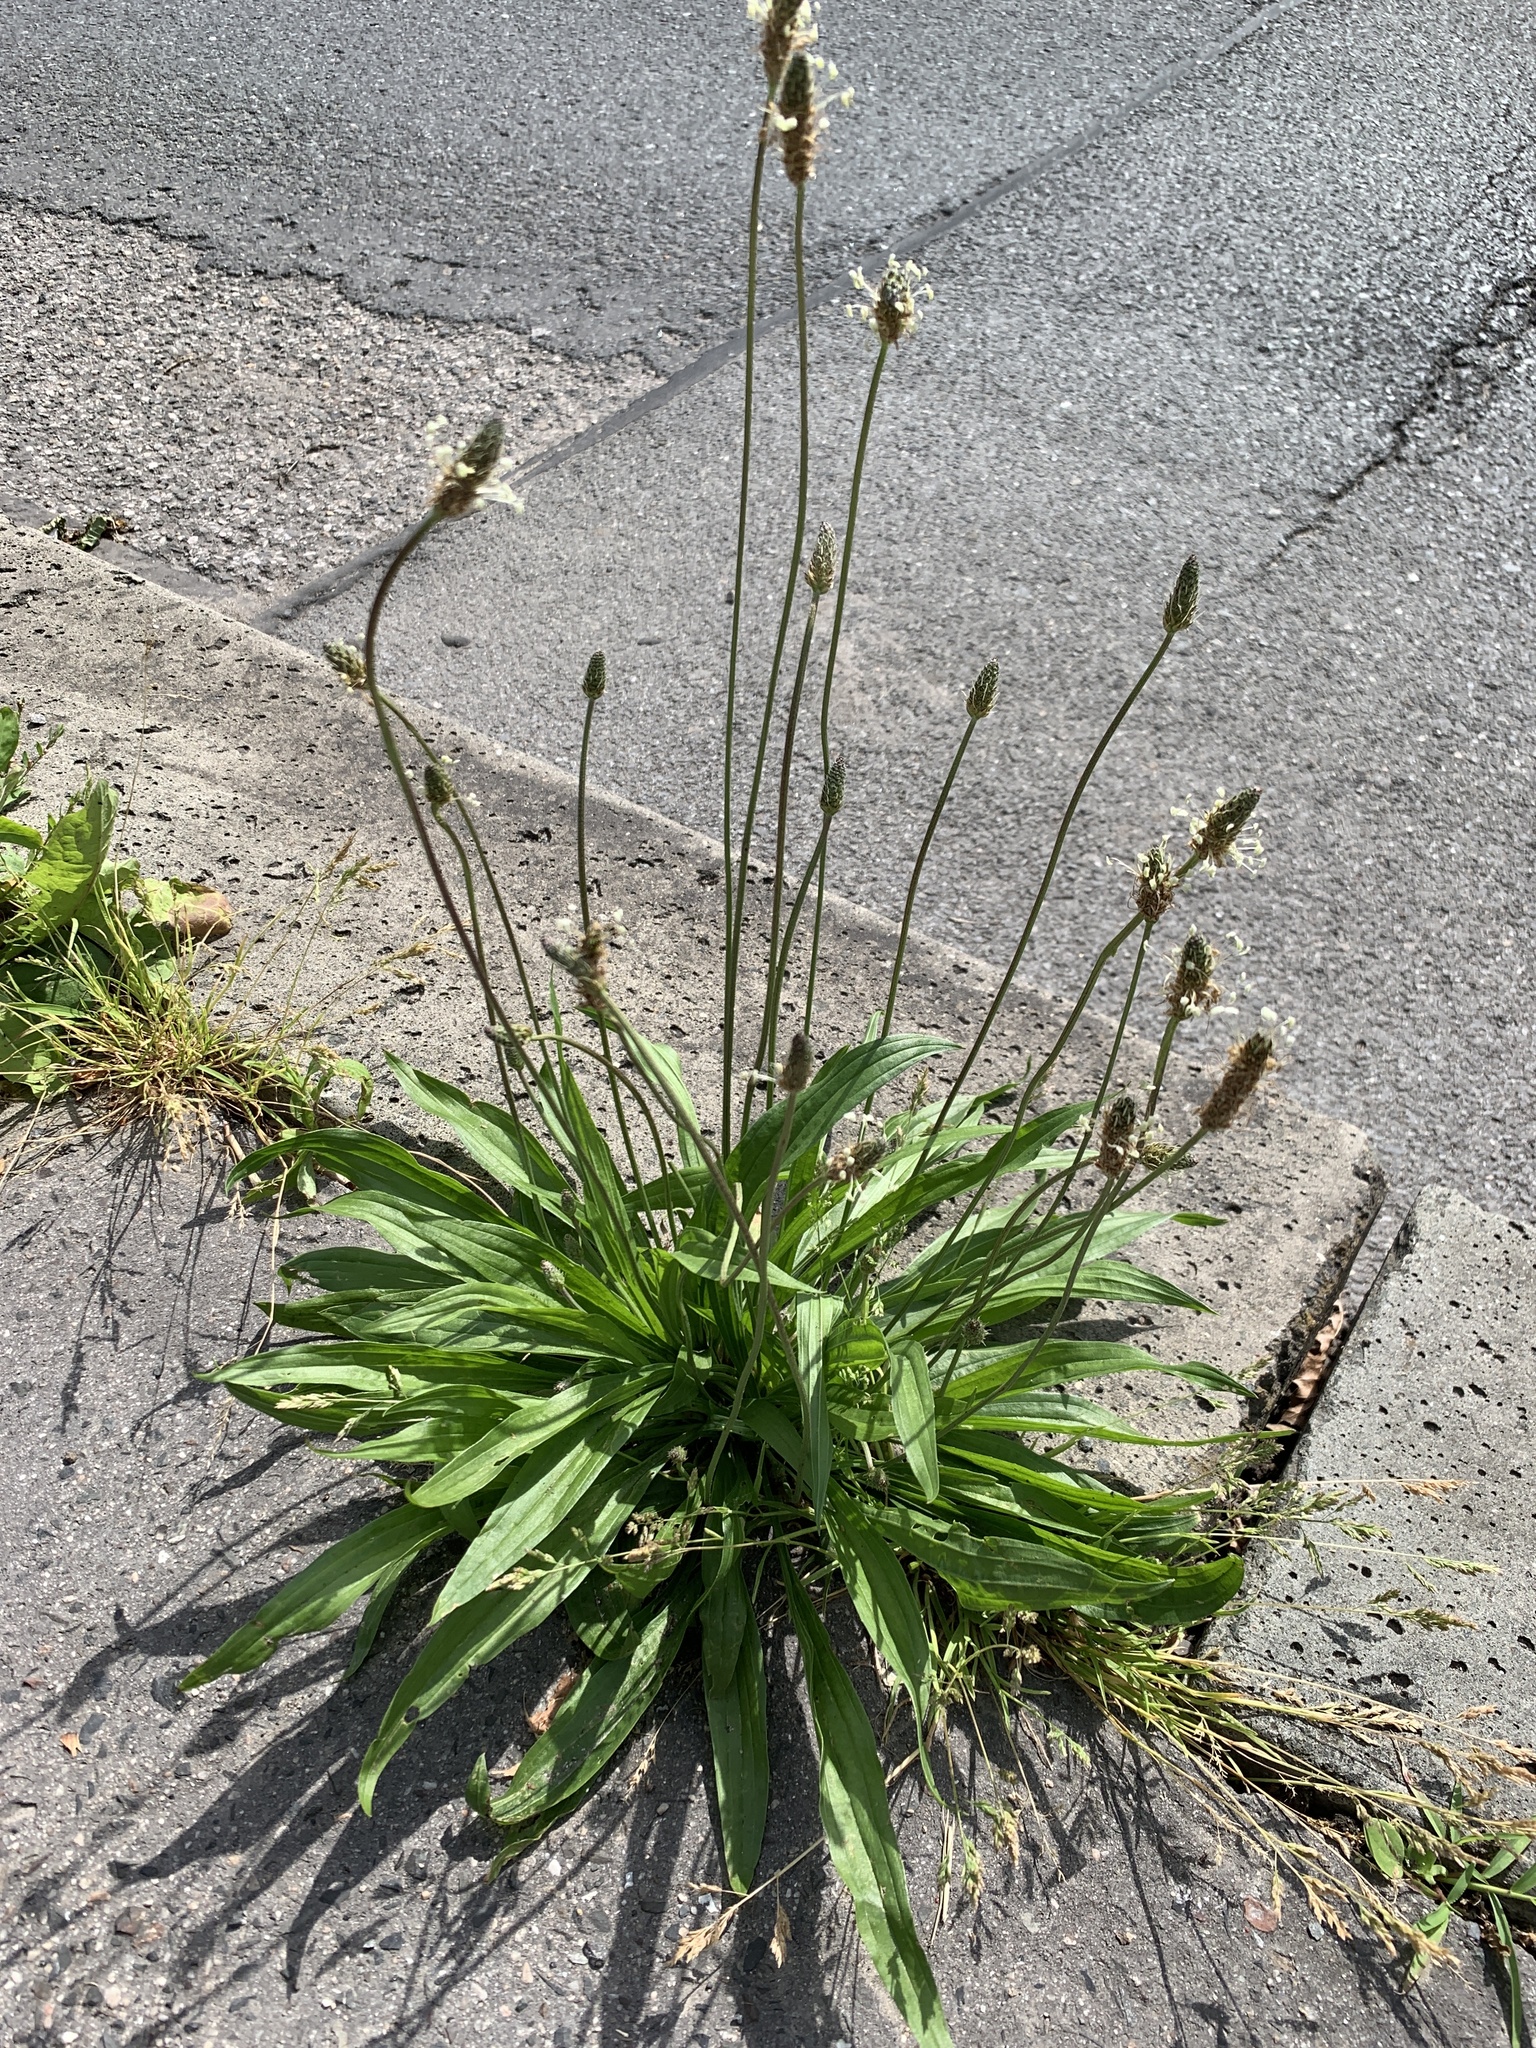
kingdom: Plantae
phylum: Tracheophyta
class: Magnoliopsida
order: Lamiales
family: Plantaginaceae
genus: Plantago
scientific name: Plantago lanceolata
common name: Ribwort plantain
